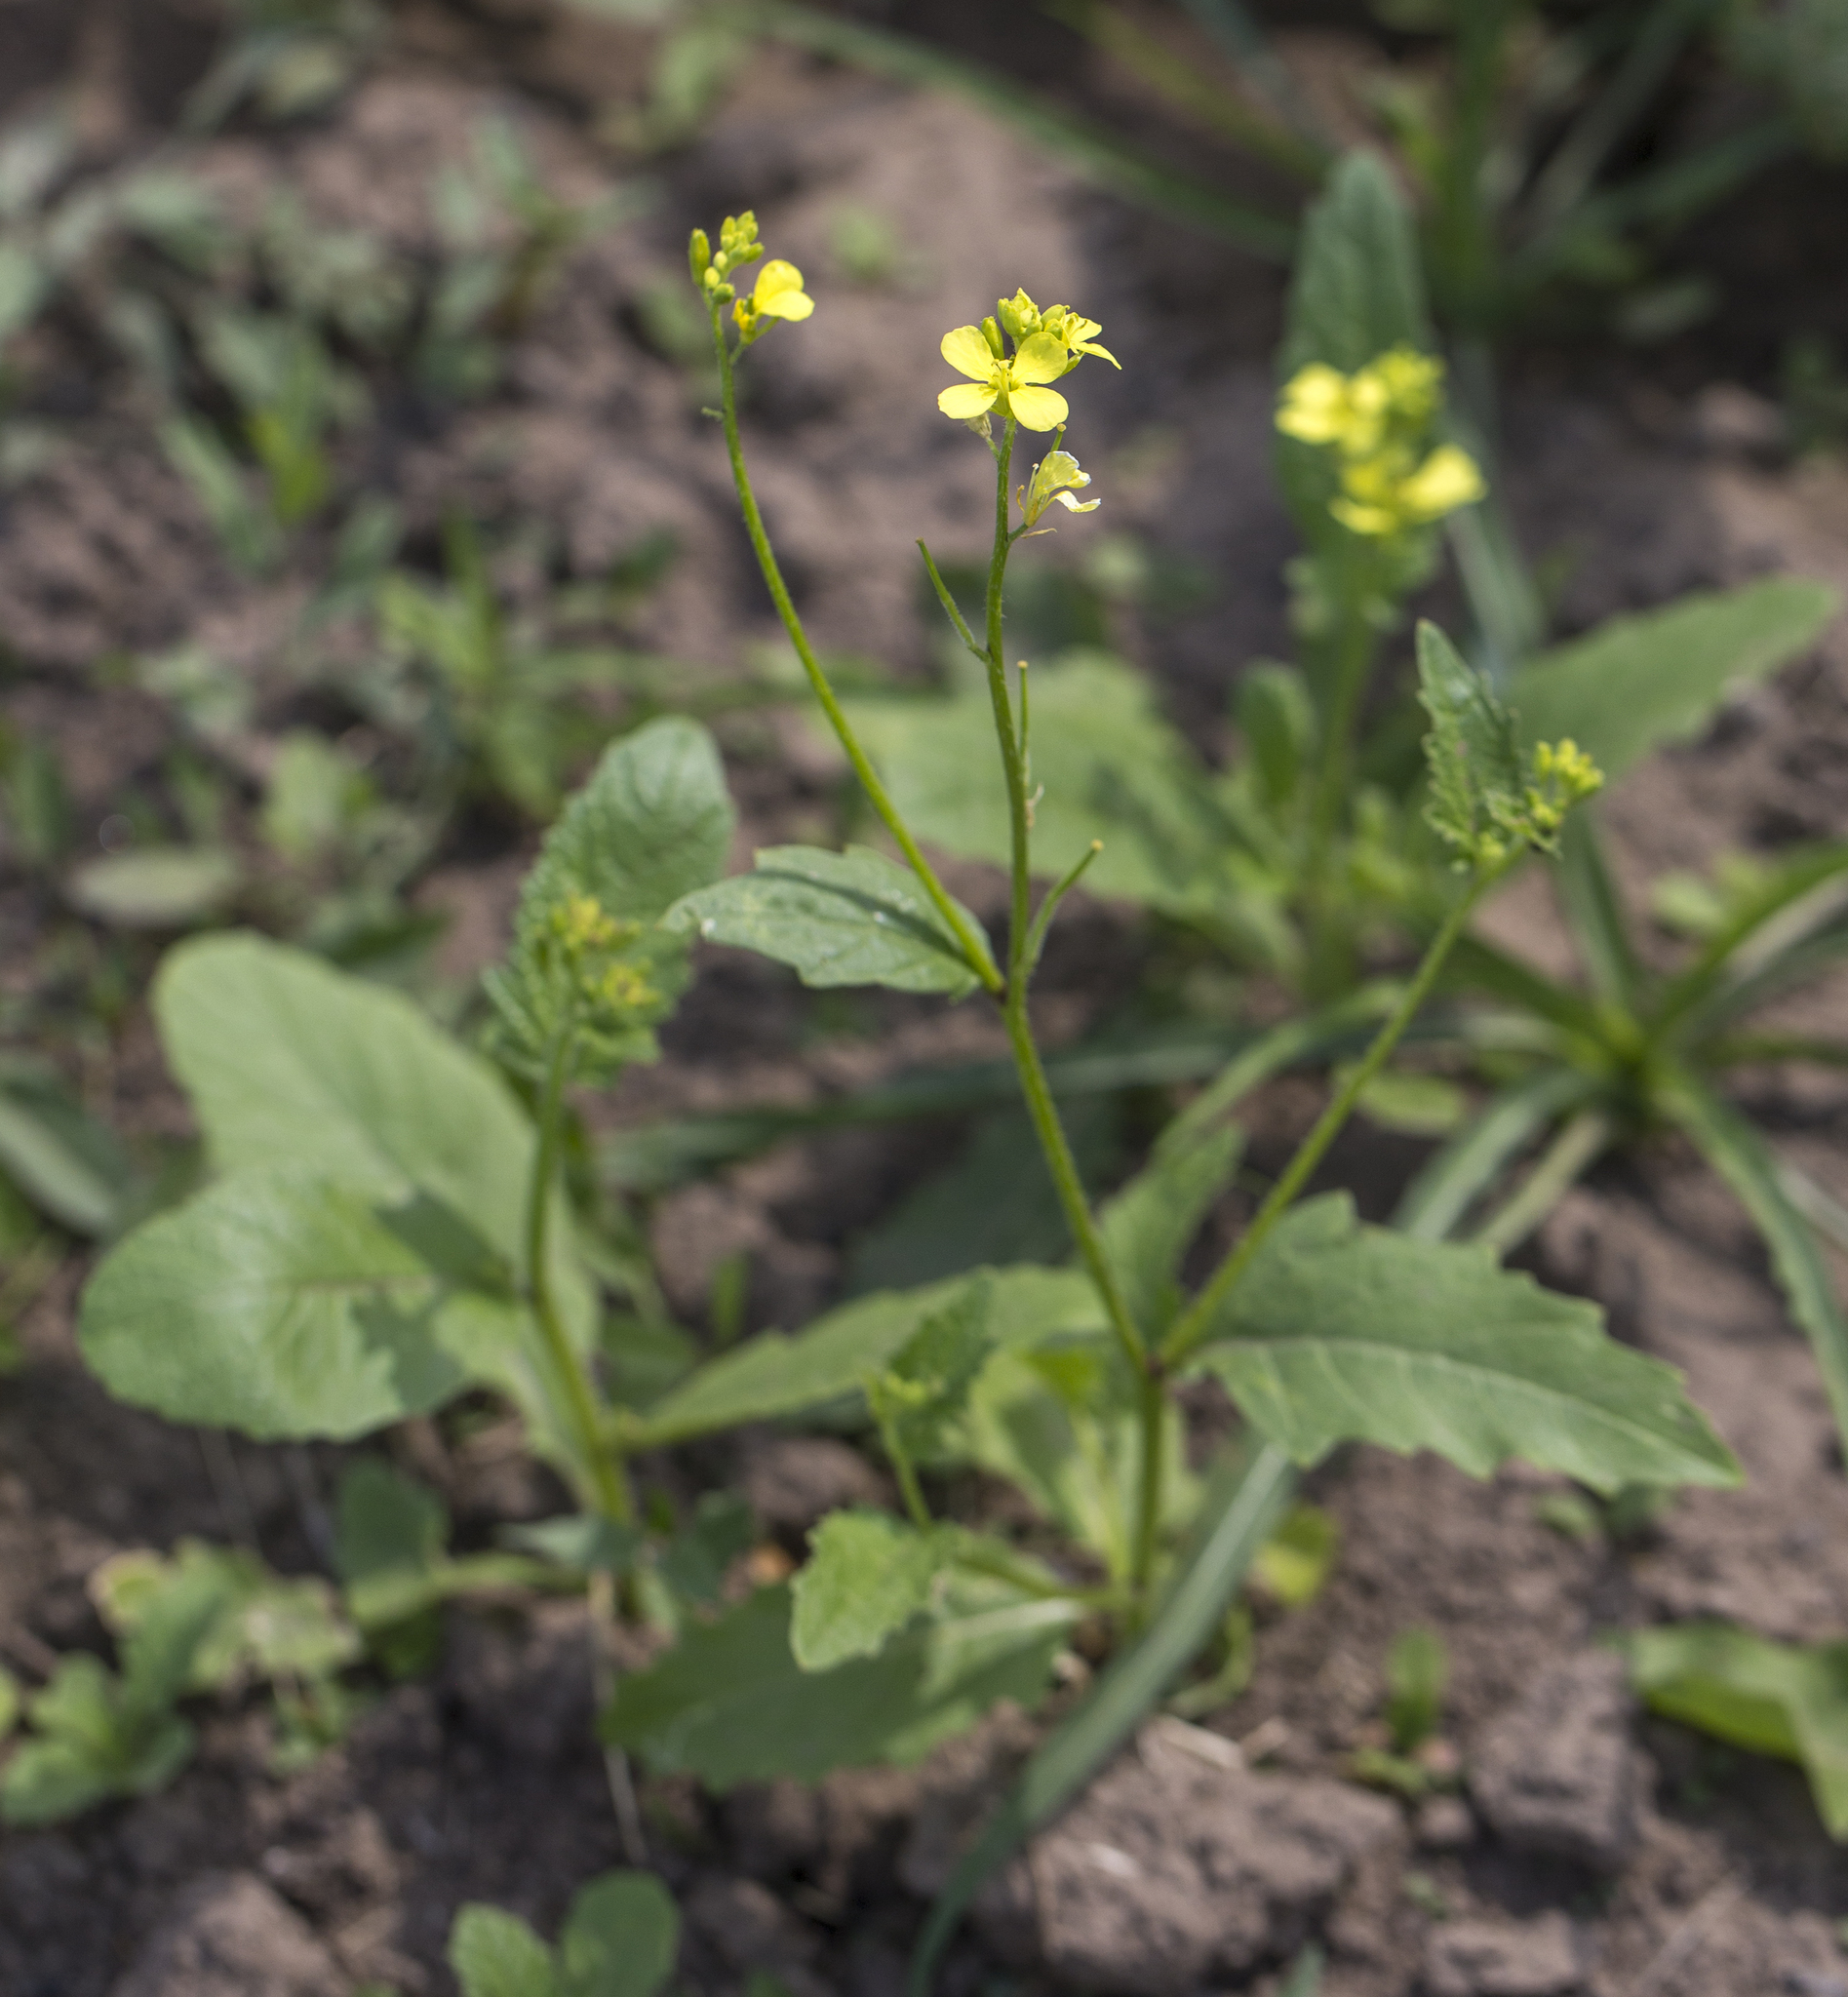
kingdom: Plantae
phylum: Tracheophyta
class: Magnoliopsida
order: Brassicales
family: Brassicaceae
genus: Sinapis
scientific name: Sinapis arvensis
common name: Charlock
